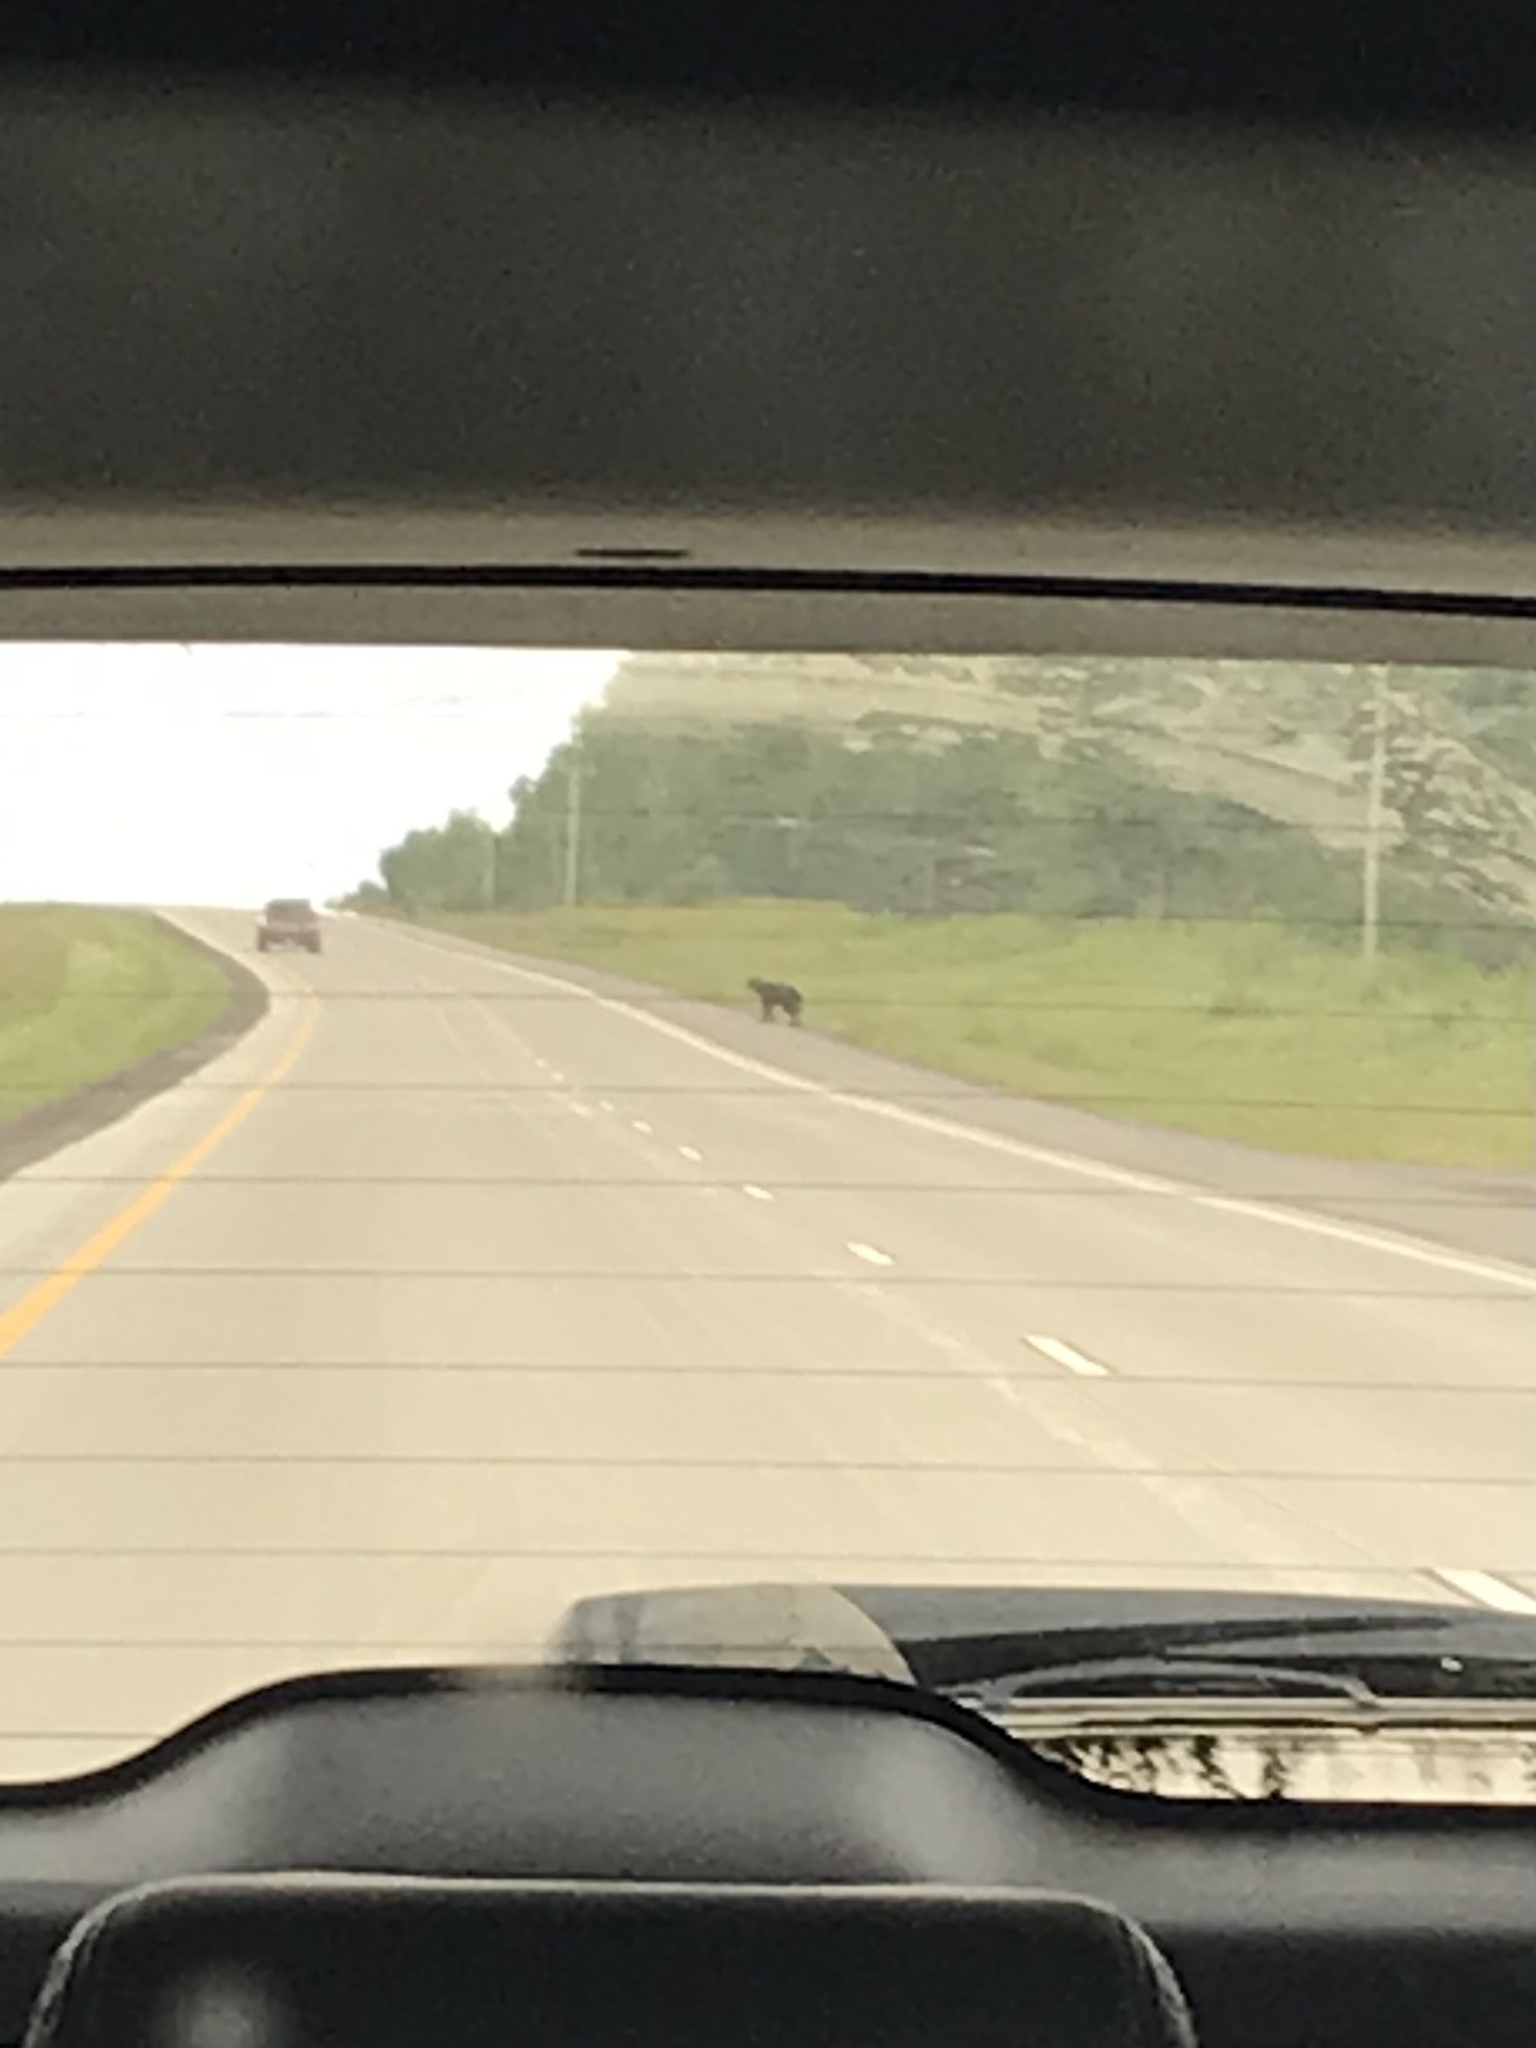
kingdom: Animalia
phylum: Chordata
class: Mammalia
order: Carnivora
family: Ursidae
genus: Ursus
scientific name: Ursus americanus
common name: American black bear
